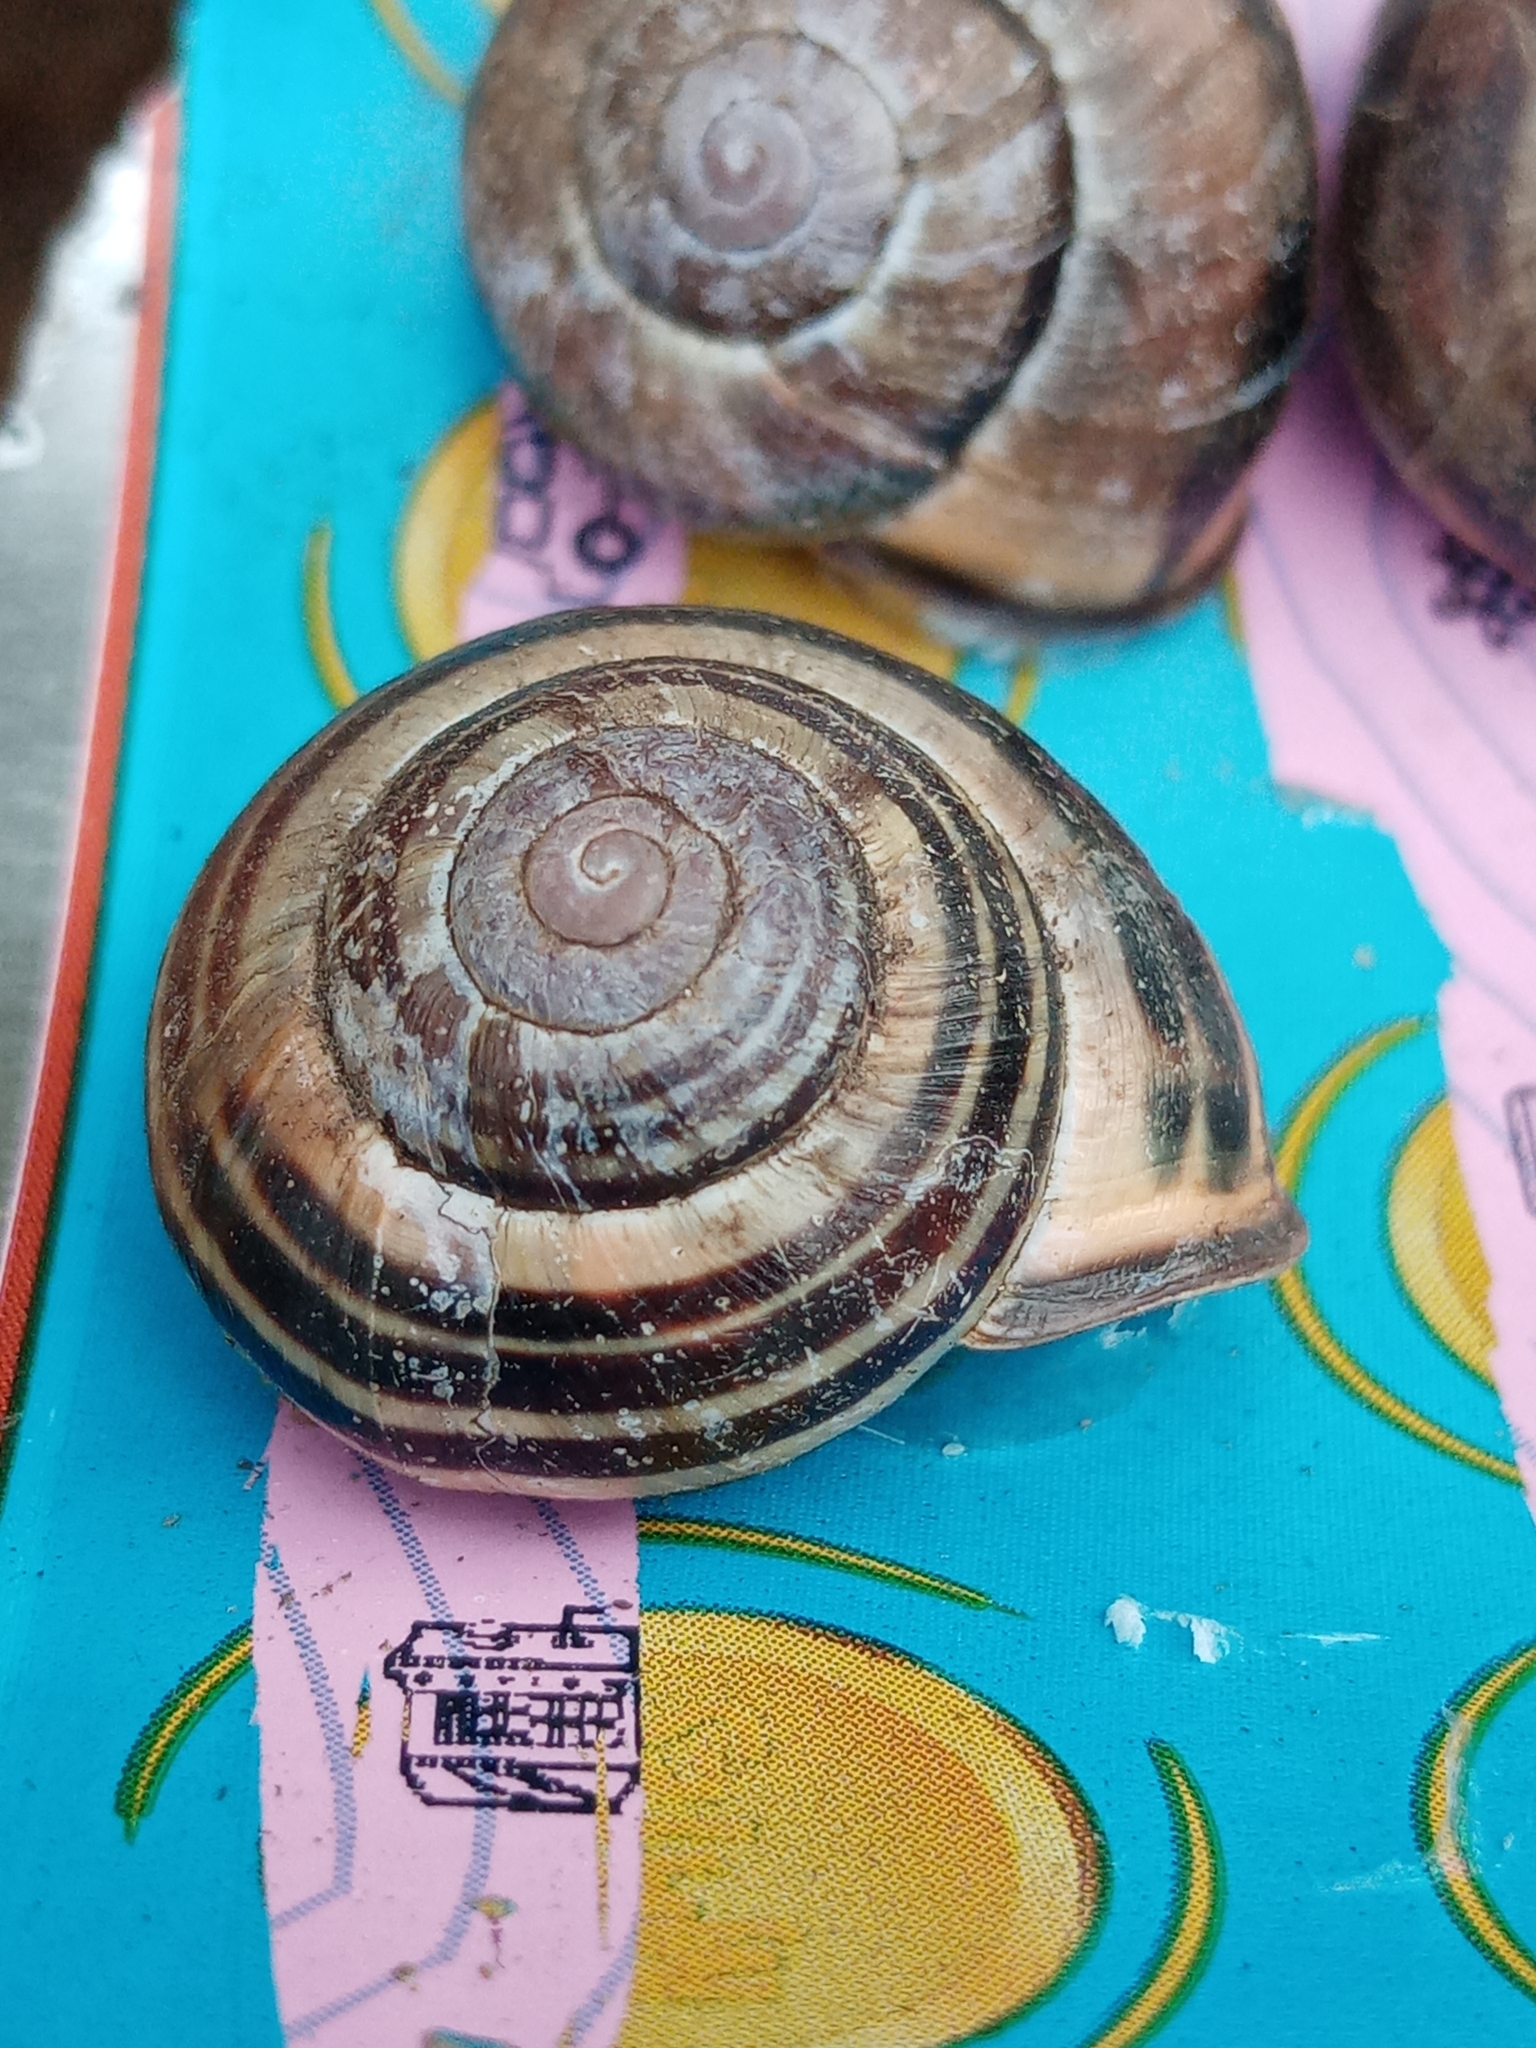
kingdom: Animalia
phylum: Mollusca
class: Gastropoda
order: Stylommatophora
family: Helicidae
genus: Cepaea
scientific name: Cepaea nemoralis
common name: Grovesnail
